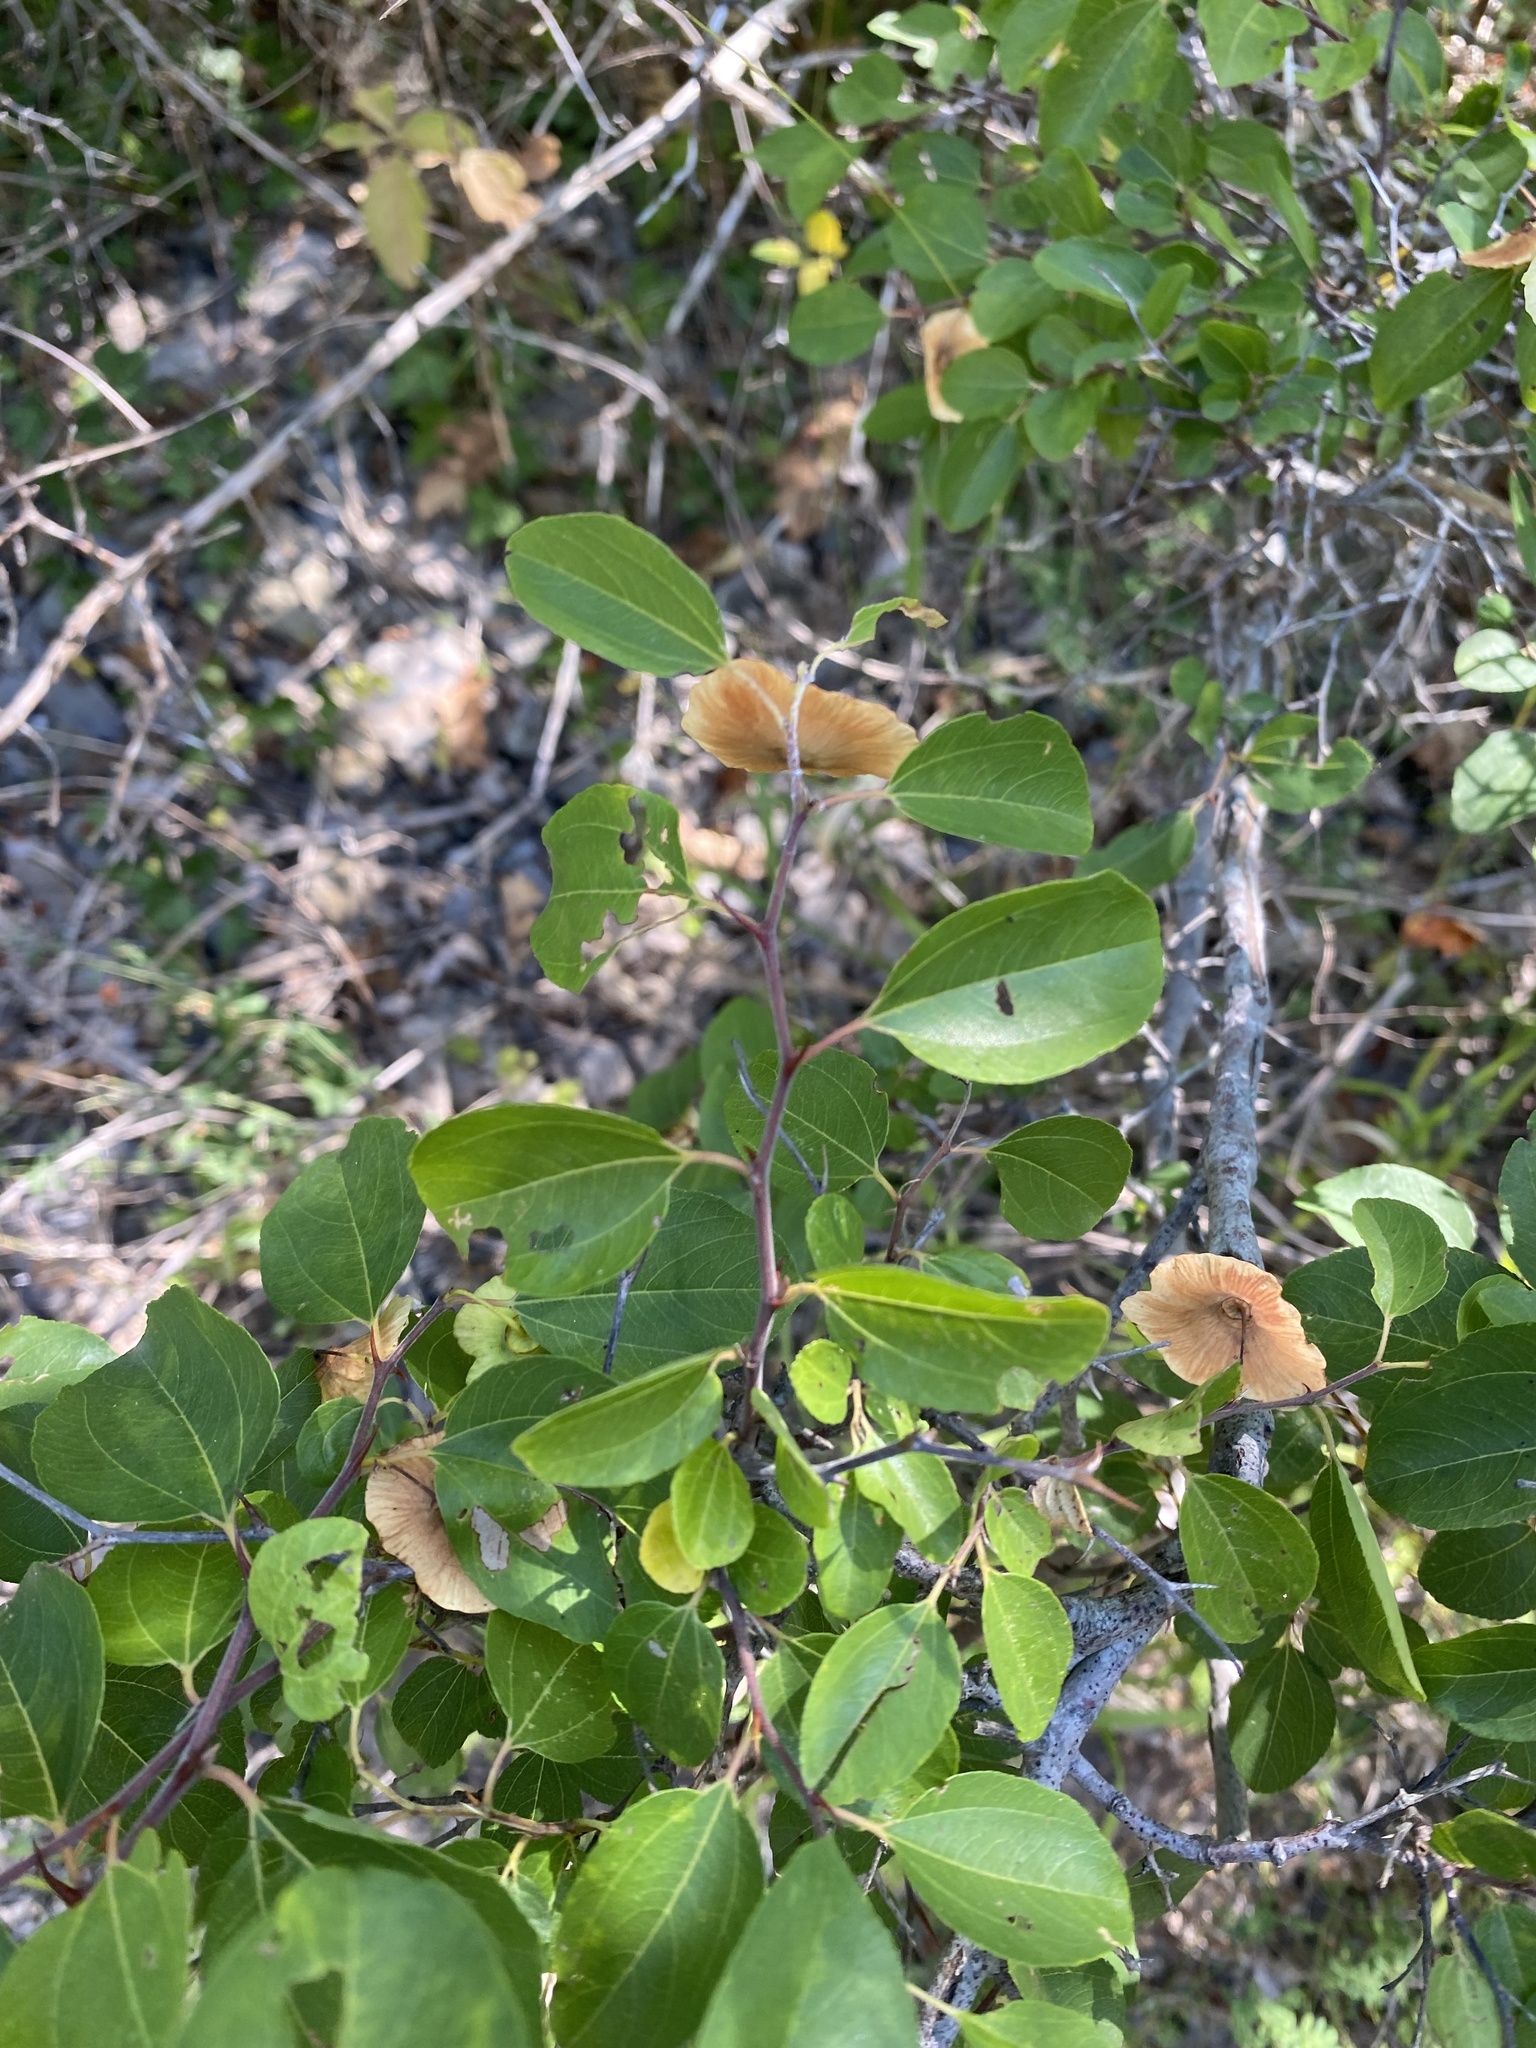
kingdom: Plantae
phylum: Tracheophyta
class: Magnoliopsida
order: Rosales
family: Rhamnaceae
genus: Paliurus
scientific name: Paliurus spina-christi
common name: Jeruselem thorn
